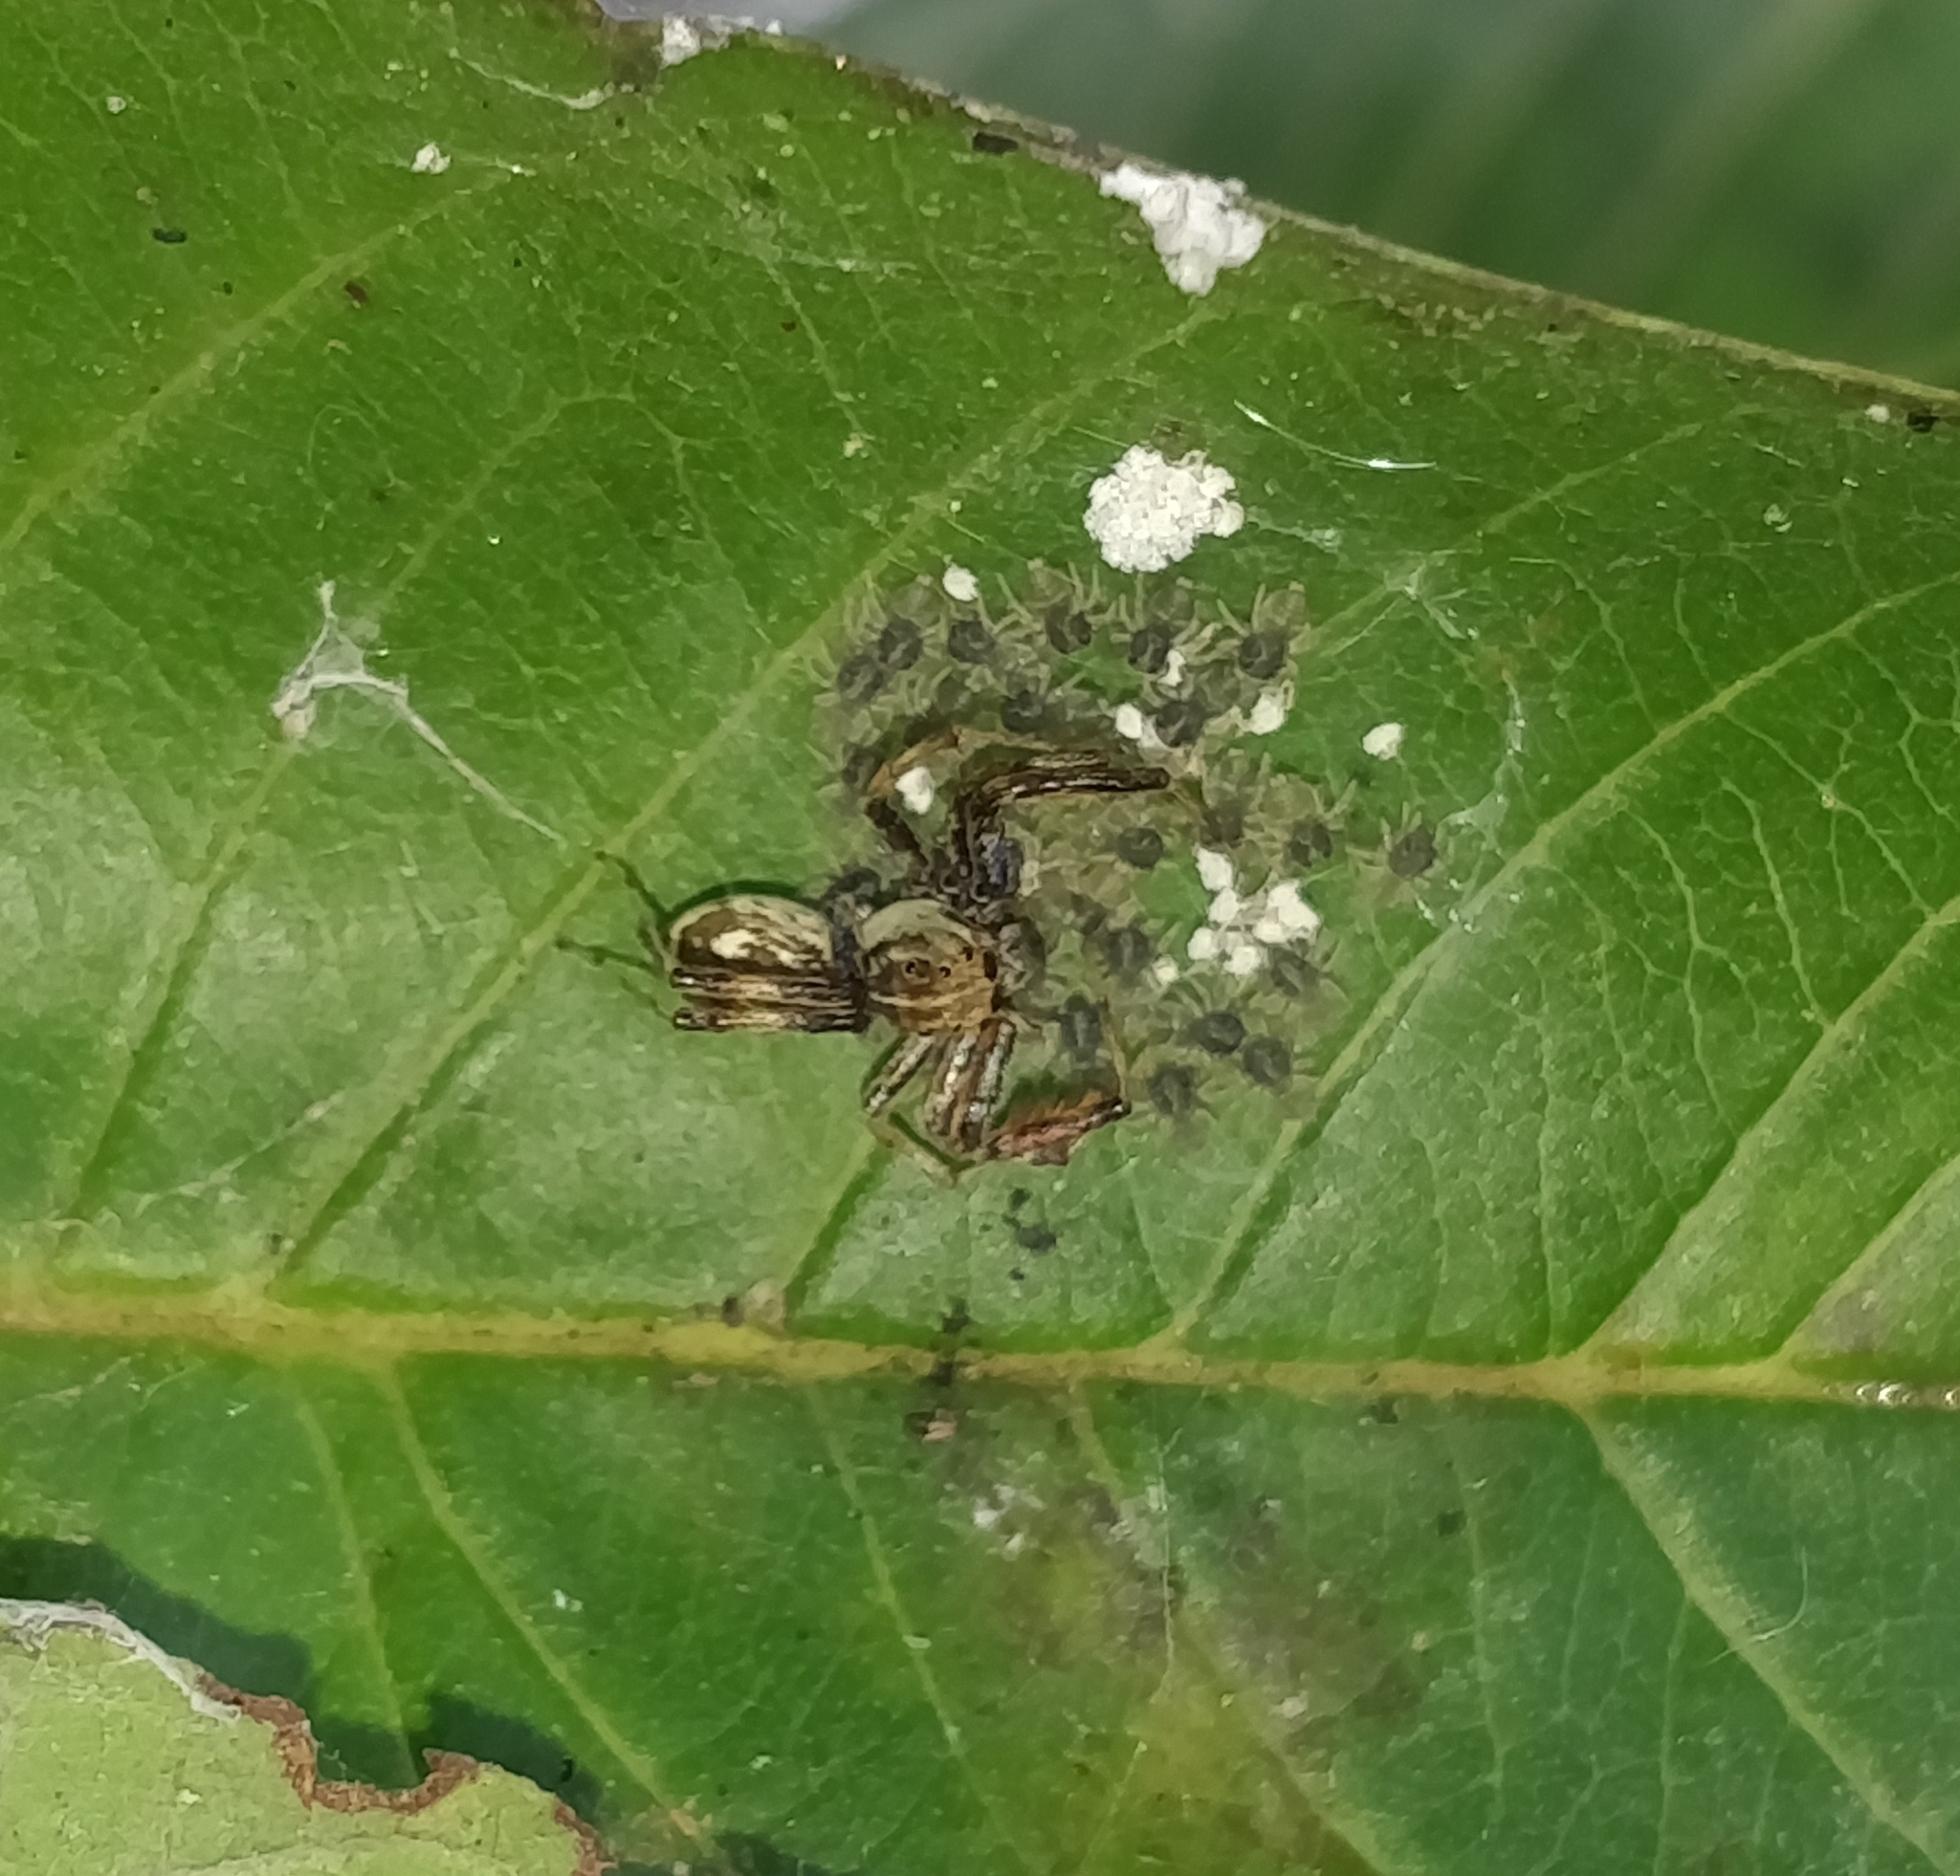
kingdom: Animalia
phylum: Arthropoda
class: Arachnida
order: Araneae
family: Salticidae
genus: Brettus
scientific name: Brettus cingulatus
